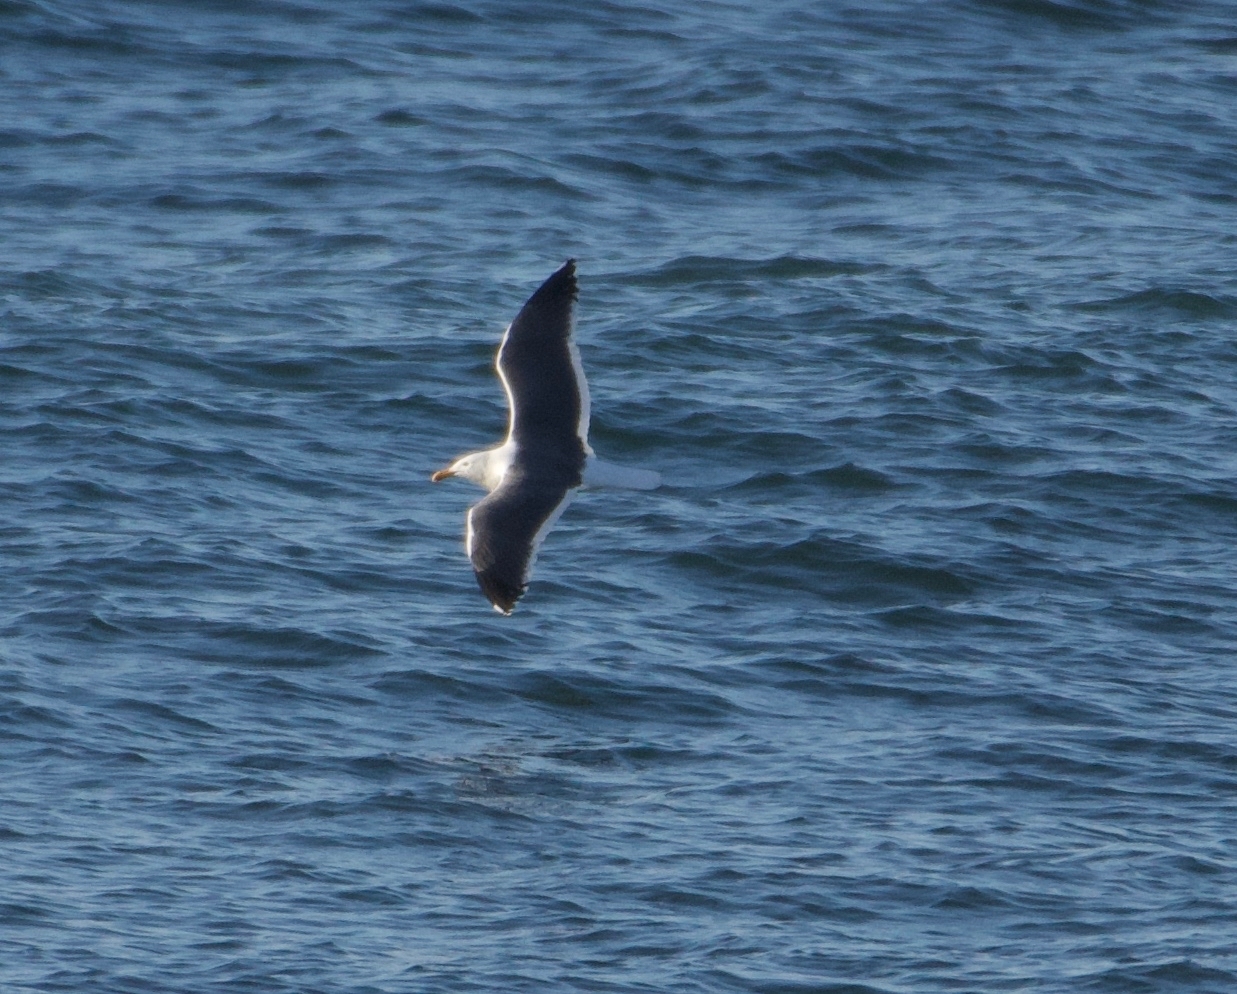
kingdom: Animalia
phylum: Chordata
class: Aves
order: Charadriiformes
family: Laridae
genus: Larus
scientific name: Larus occidentalis
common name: Western gull
